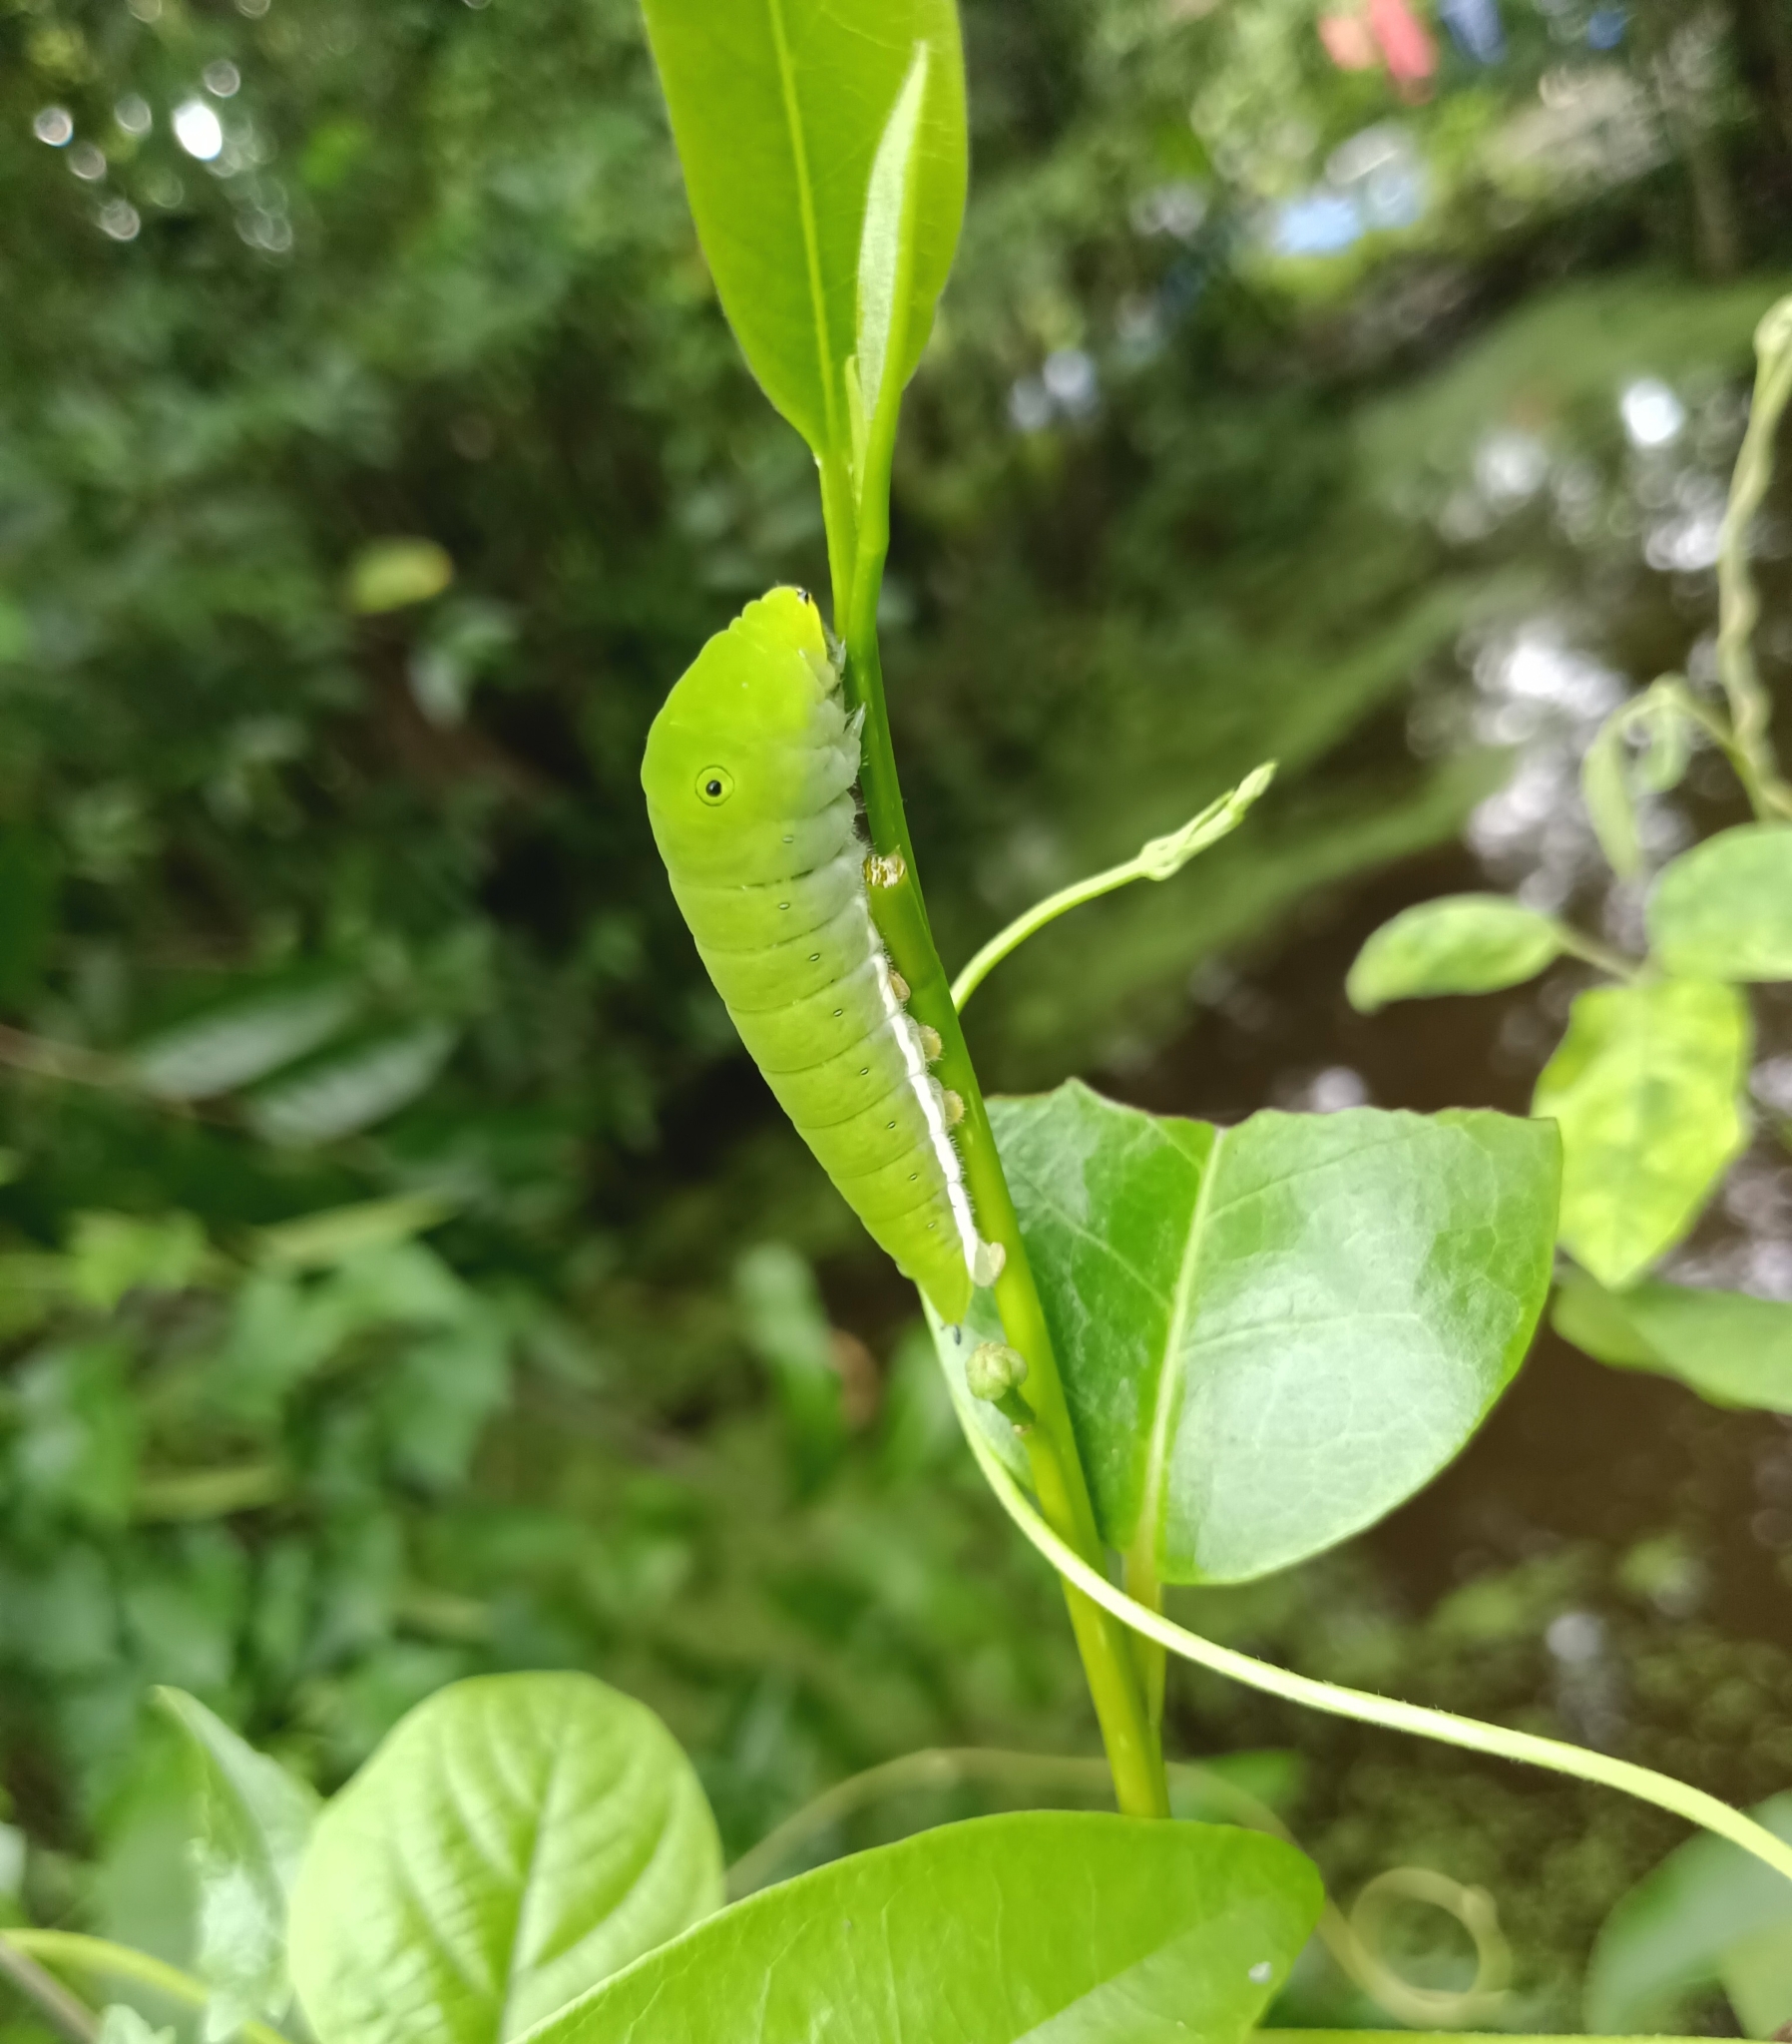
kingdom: Animalia
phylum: Arthropoda
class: Insecta
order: Lepidoptera
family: Papilionidae
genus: Graphium
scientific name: Graphium doson
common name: Common jay
